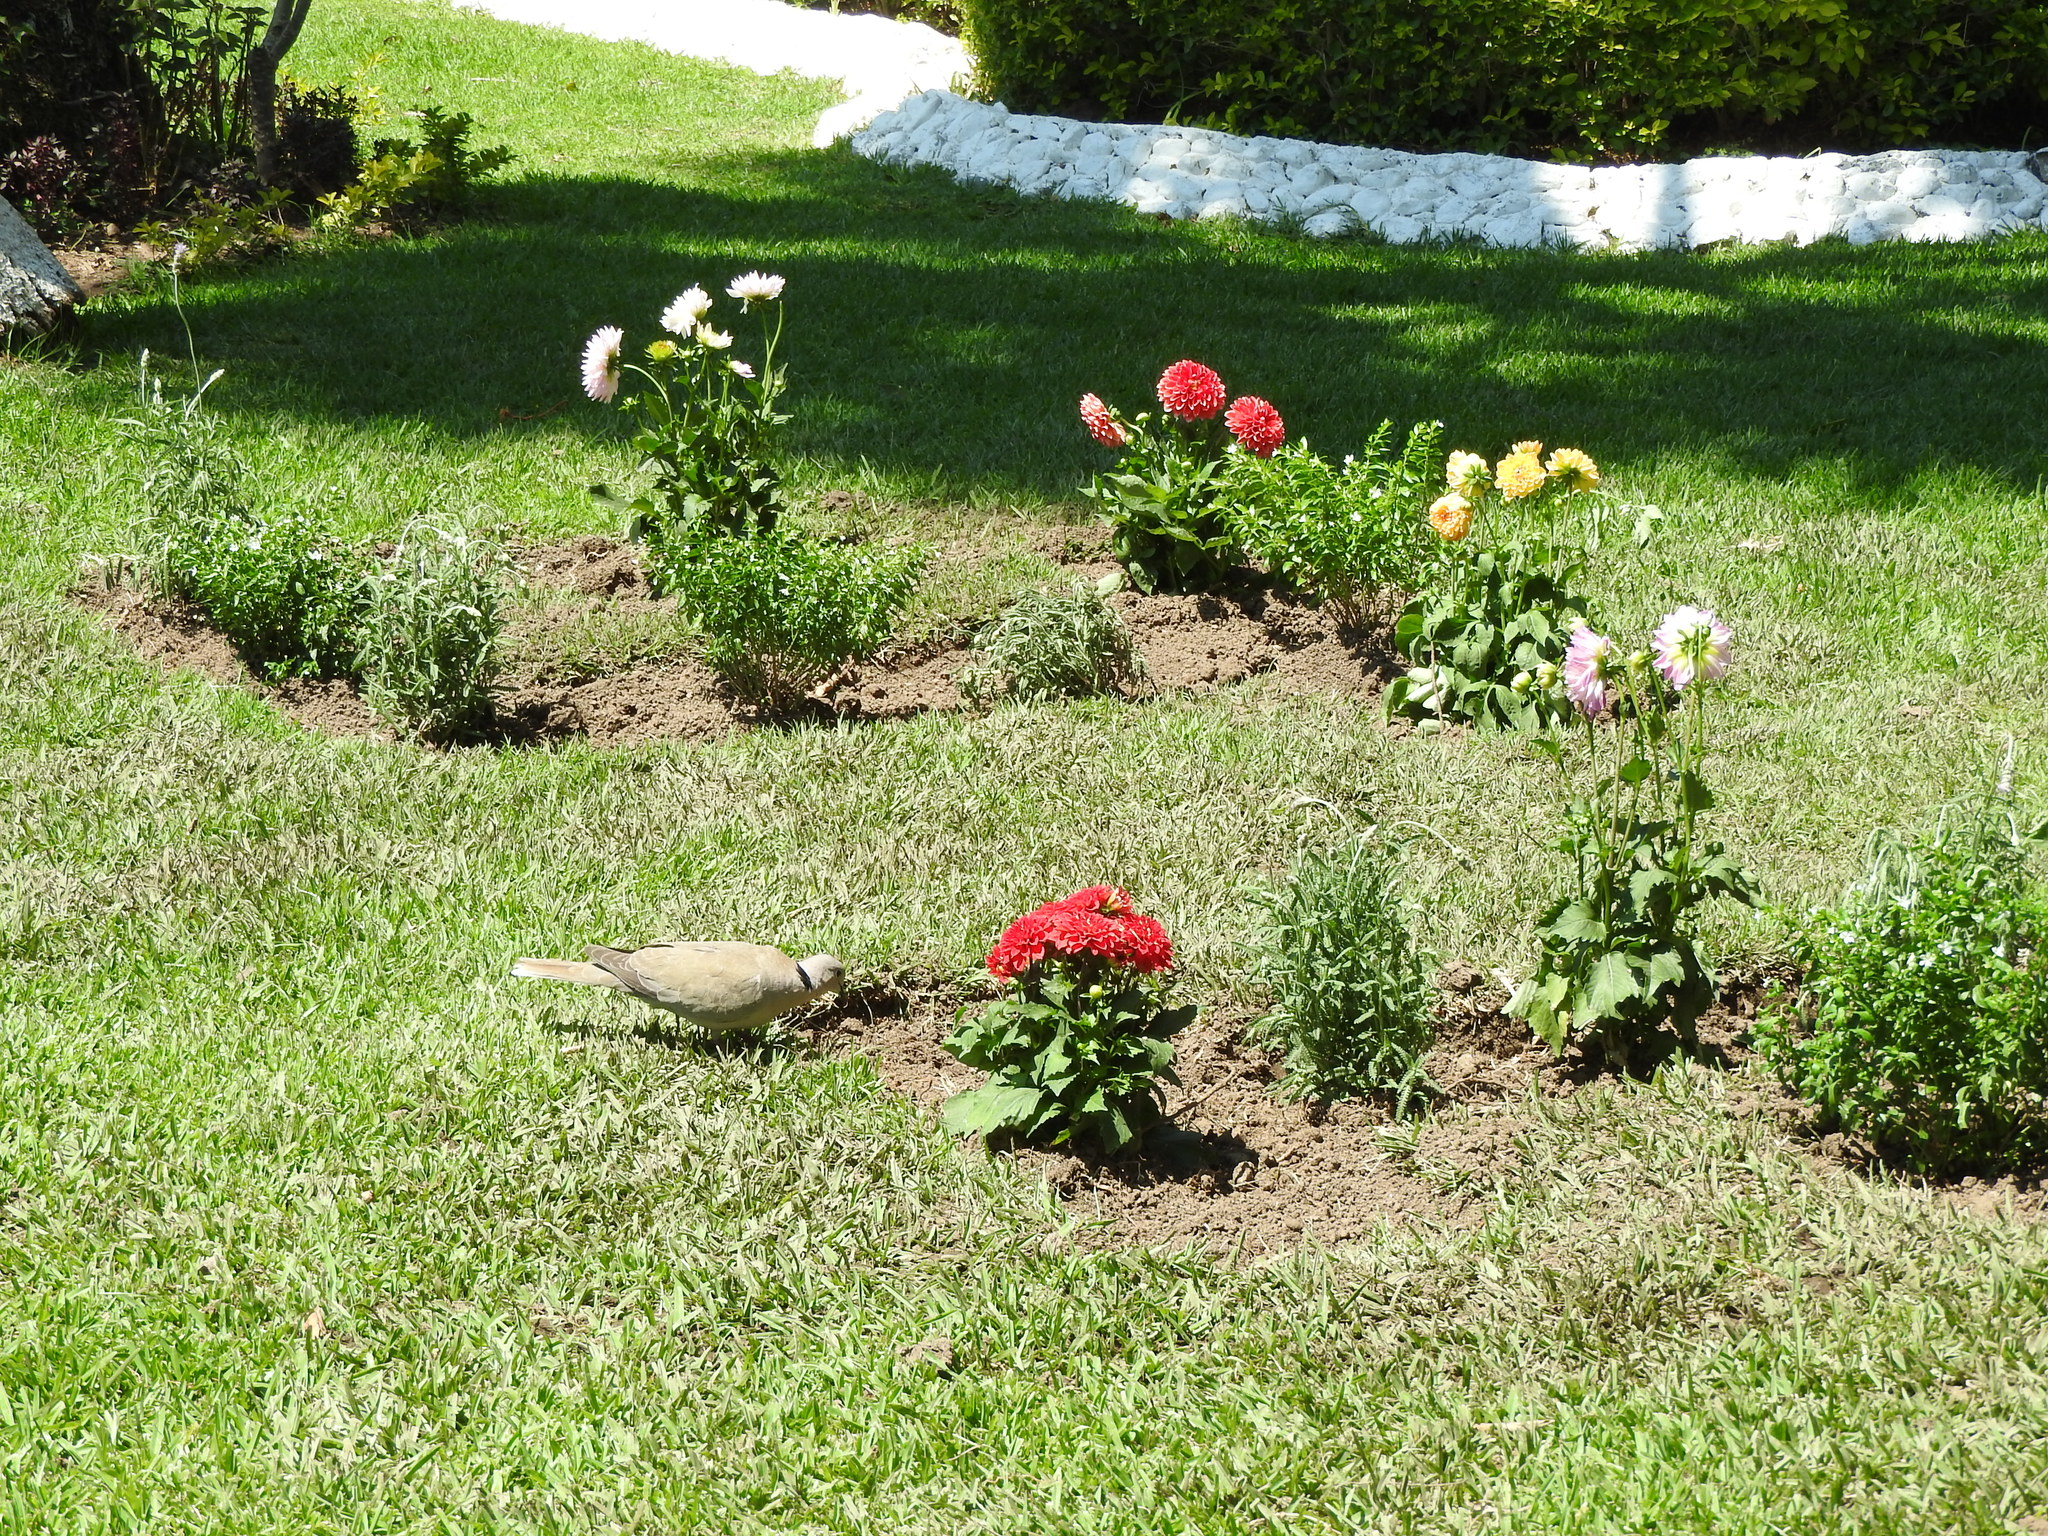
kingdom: Animalia
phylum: Chordata
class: Aves
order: Columbiformes
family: Columbidae
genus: Streptopelia
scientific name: Streptopelia decaocto
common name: Eurasian collared dove
